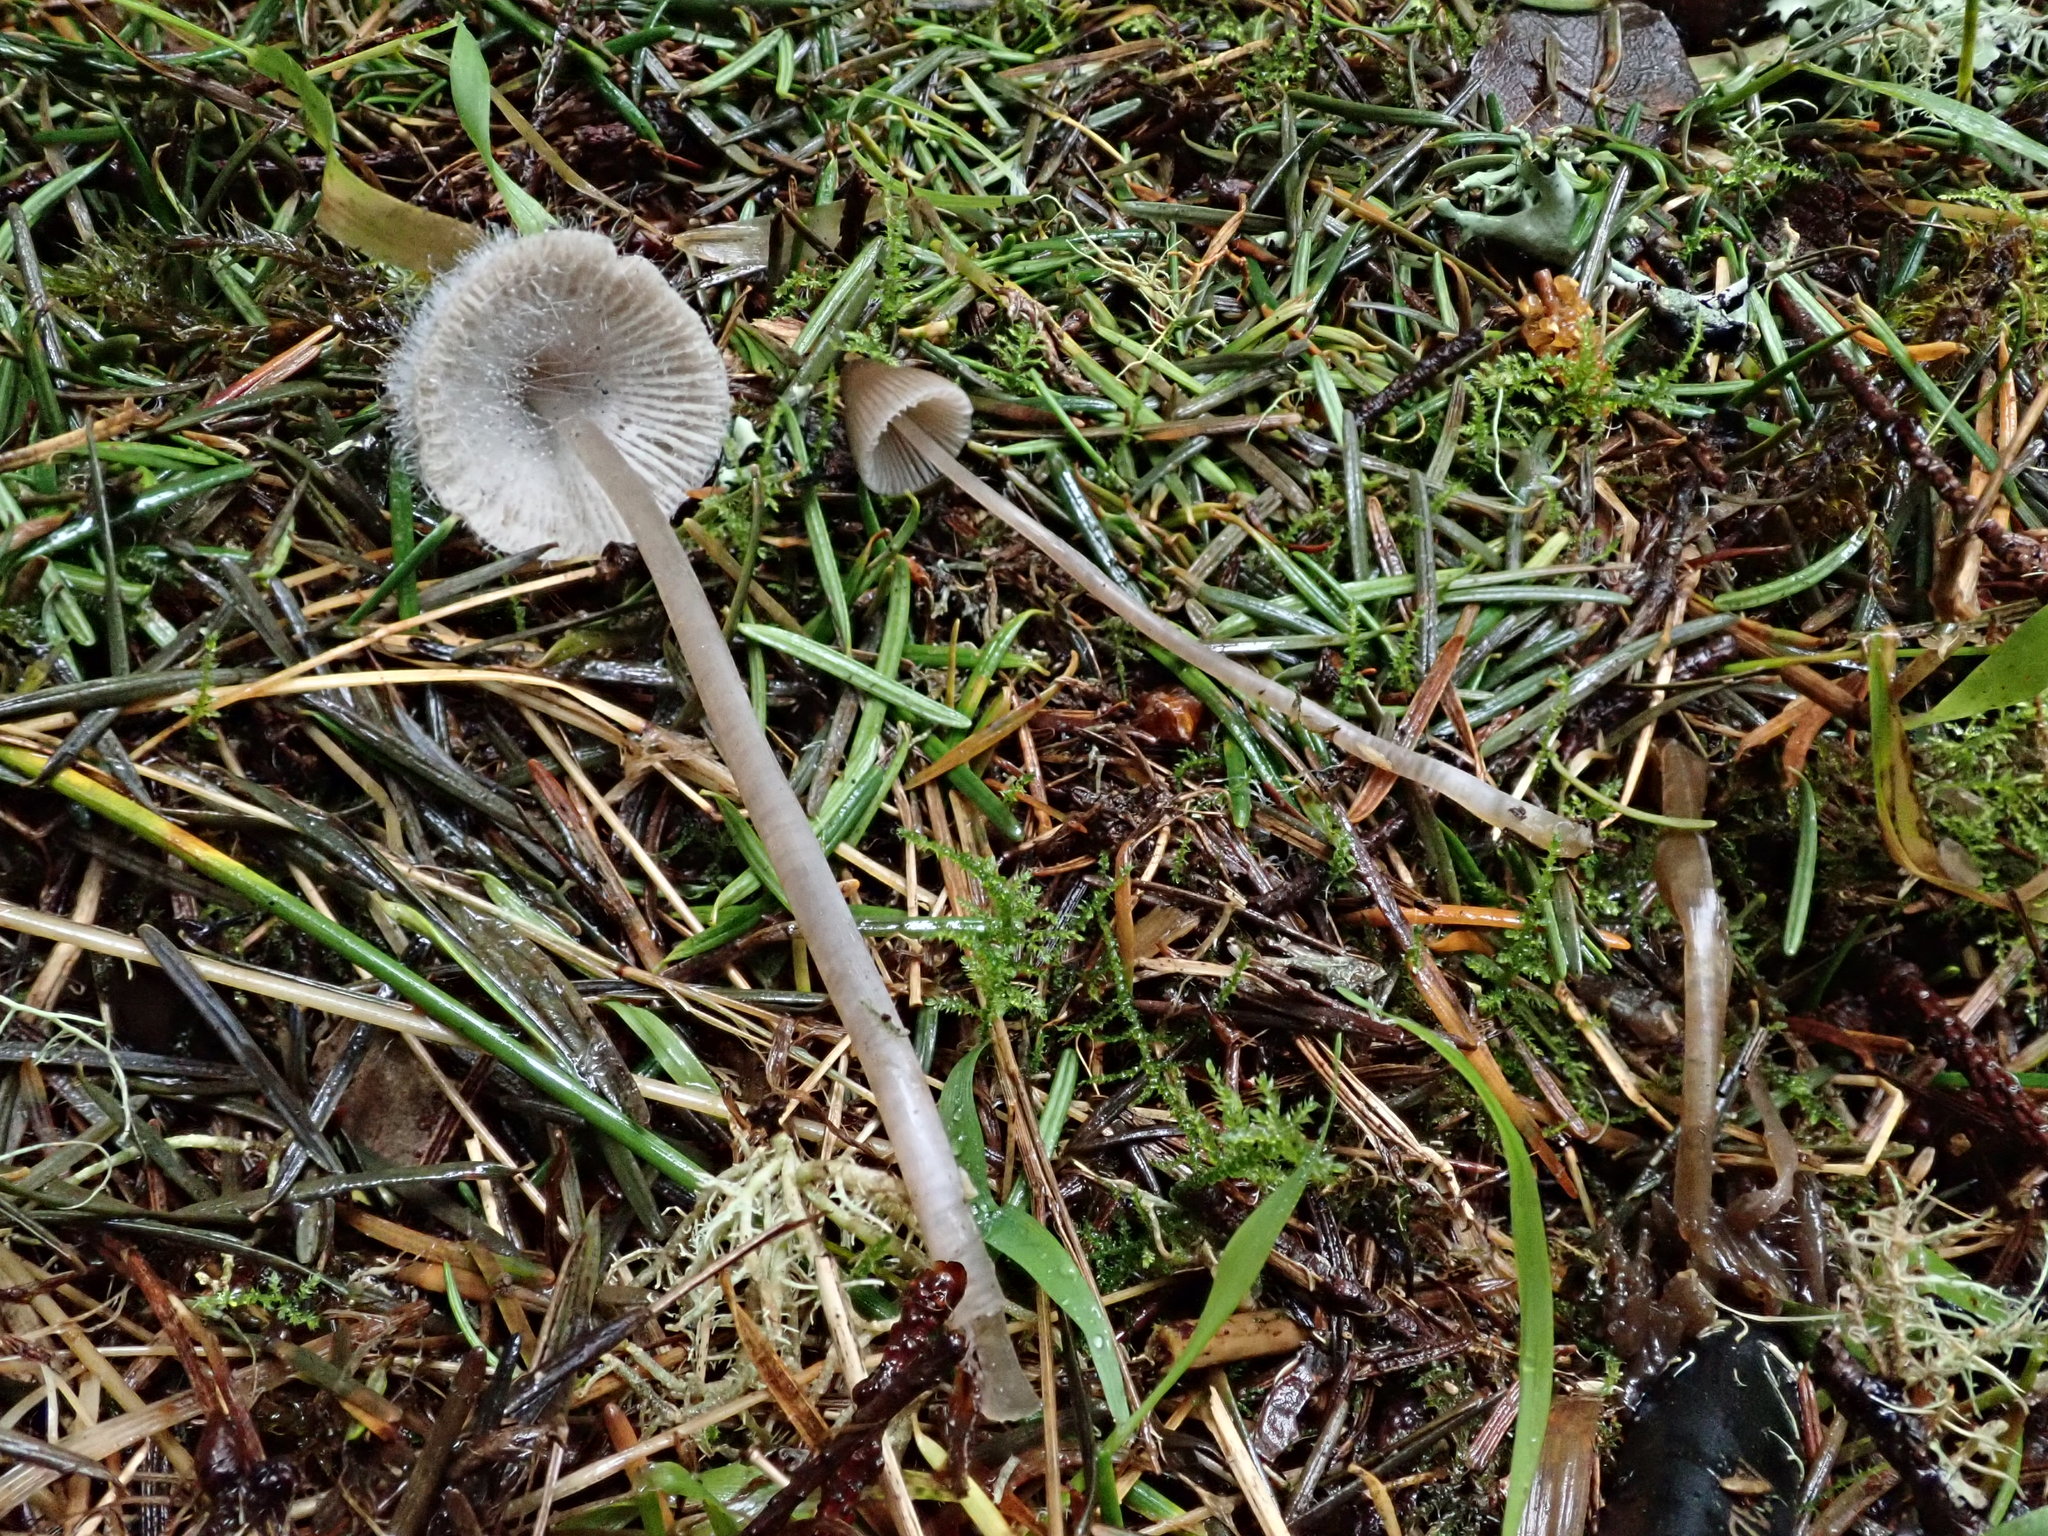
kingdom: Fungi
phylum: Mucoromycota
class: Mucoromycetes
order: Mucorales
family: Phycomycetaceae
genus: Spinellus
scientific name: Spinellus fusiger
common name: Bonnet mould
